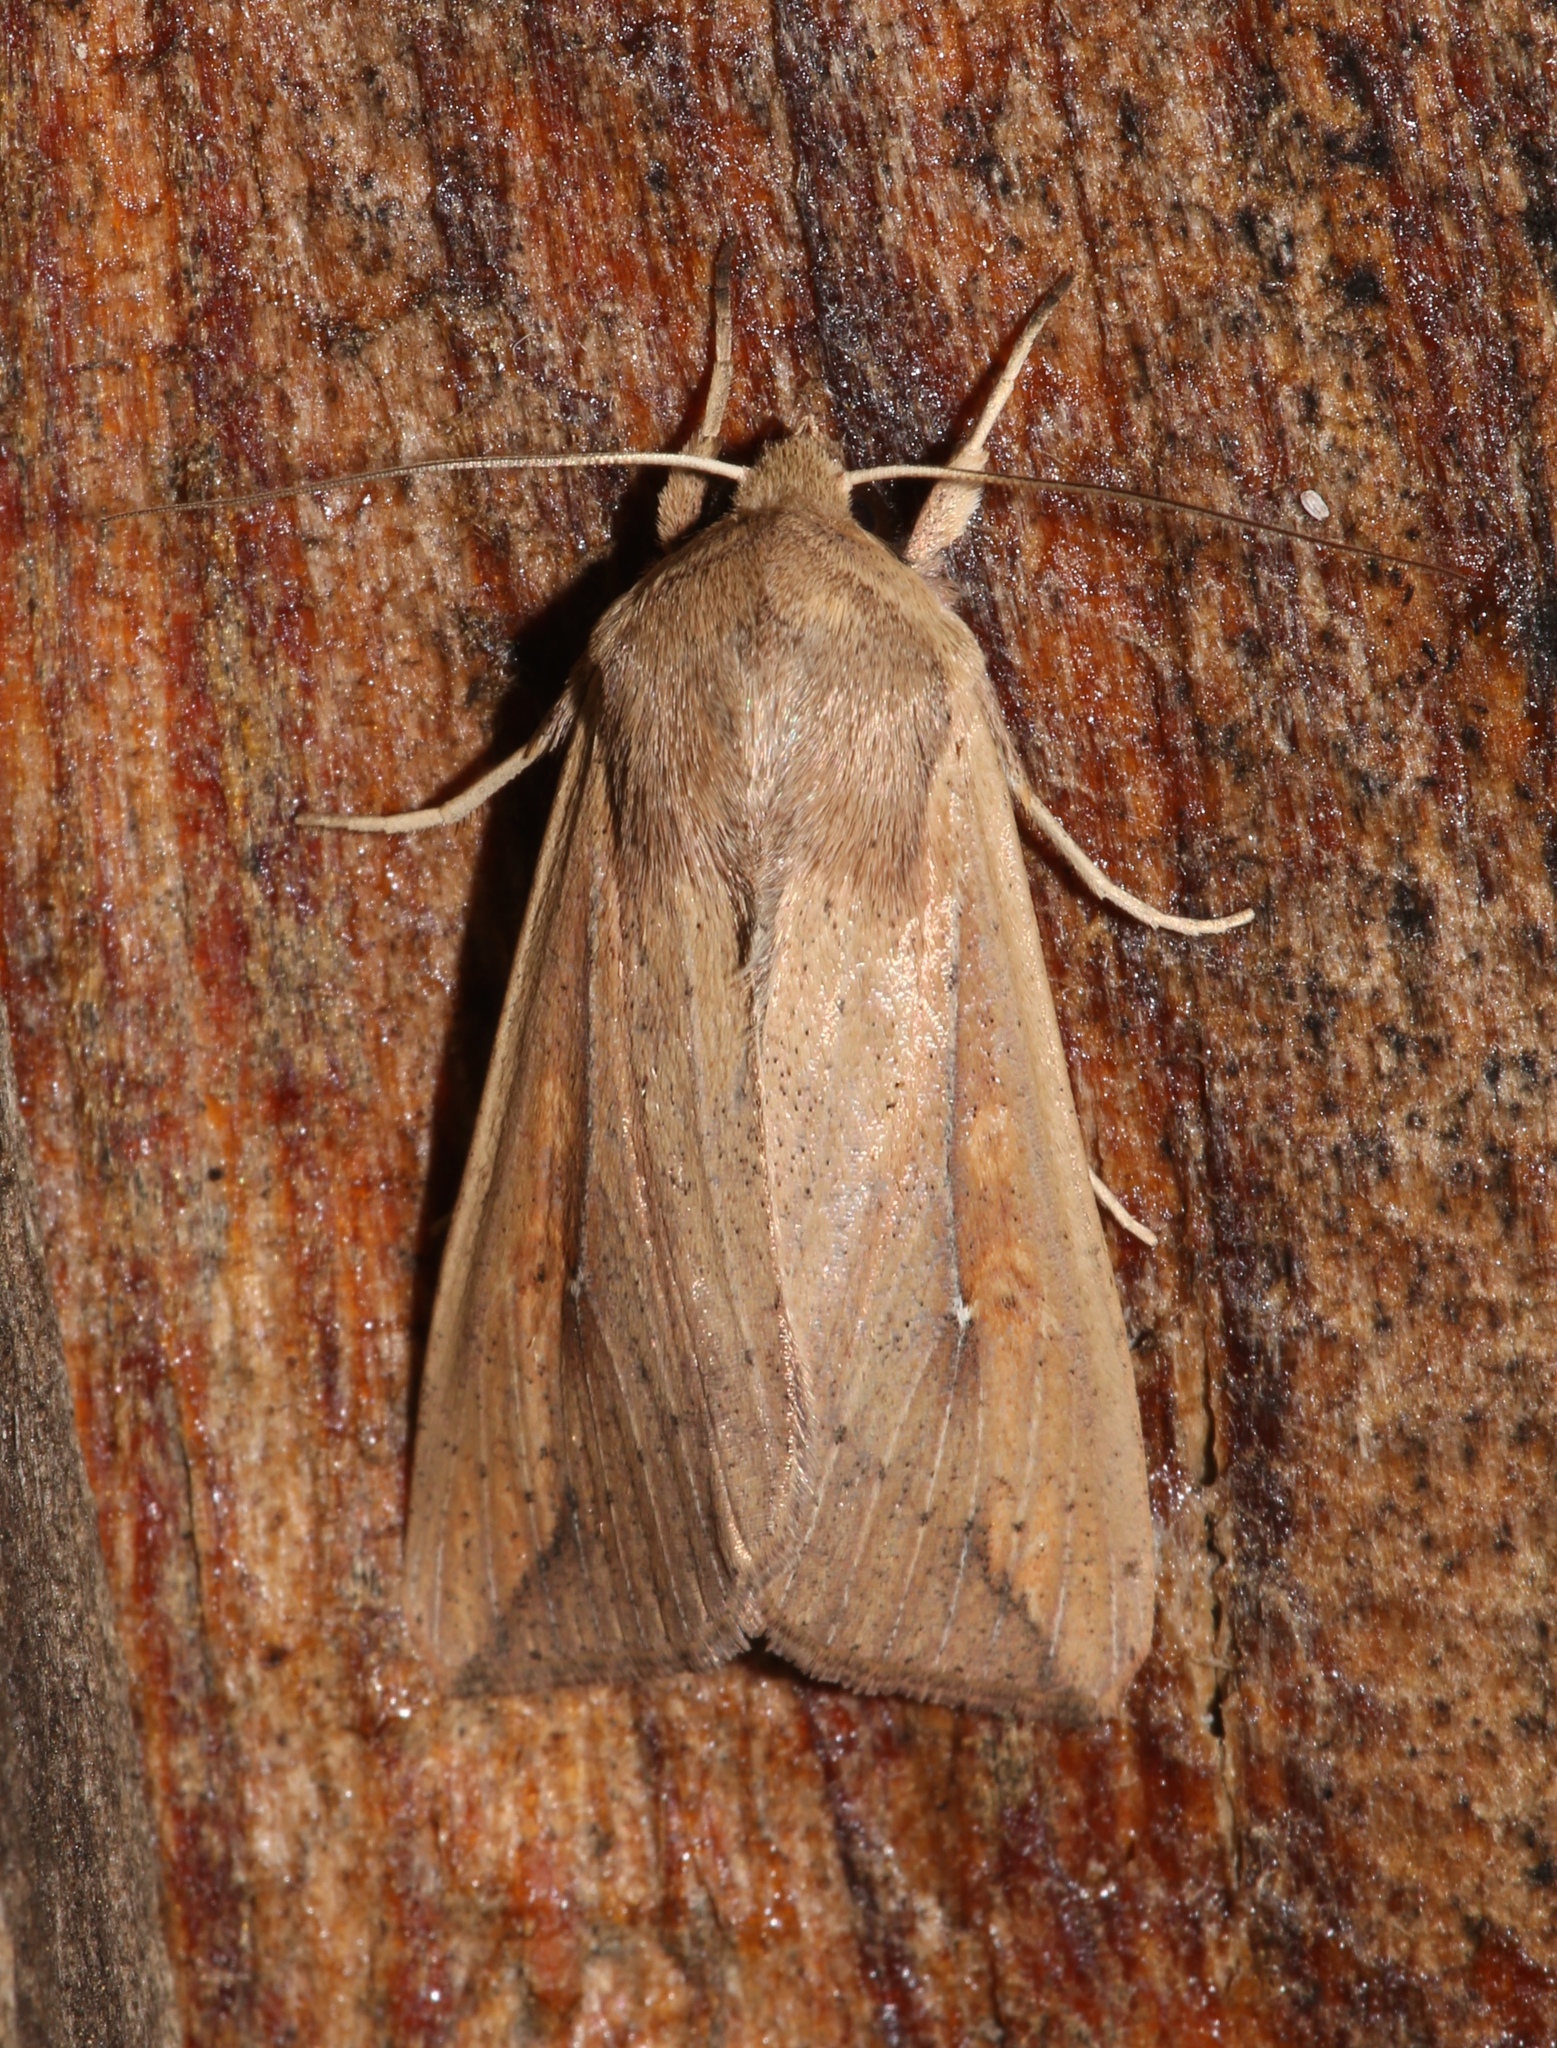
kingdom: Animalia
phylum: Arthropoda
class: Insecta
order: Lepidoptera
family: Noctuidae
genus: Mythimna
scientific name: Mythimna unipuncta
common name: White-speck
